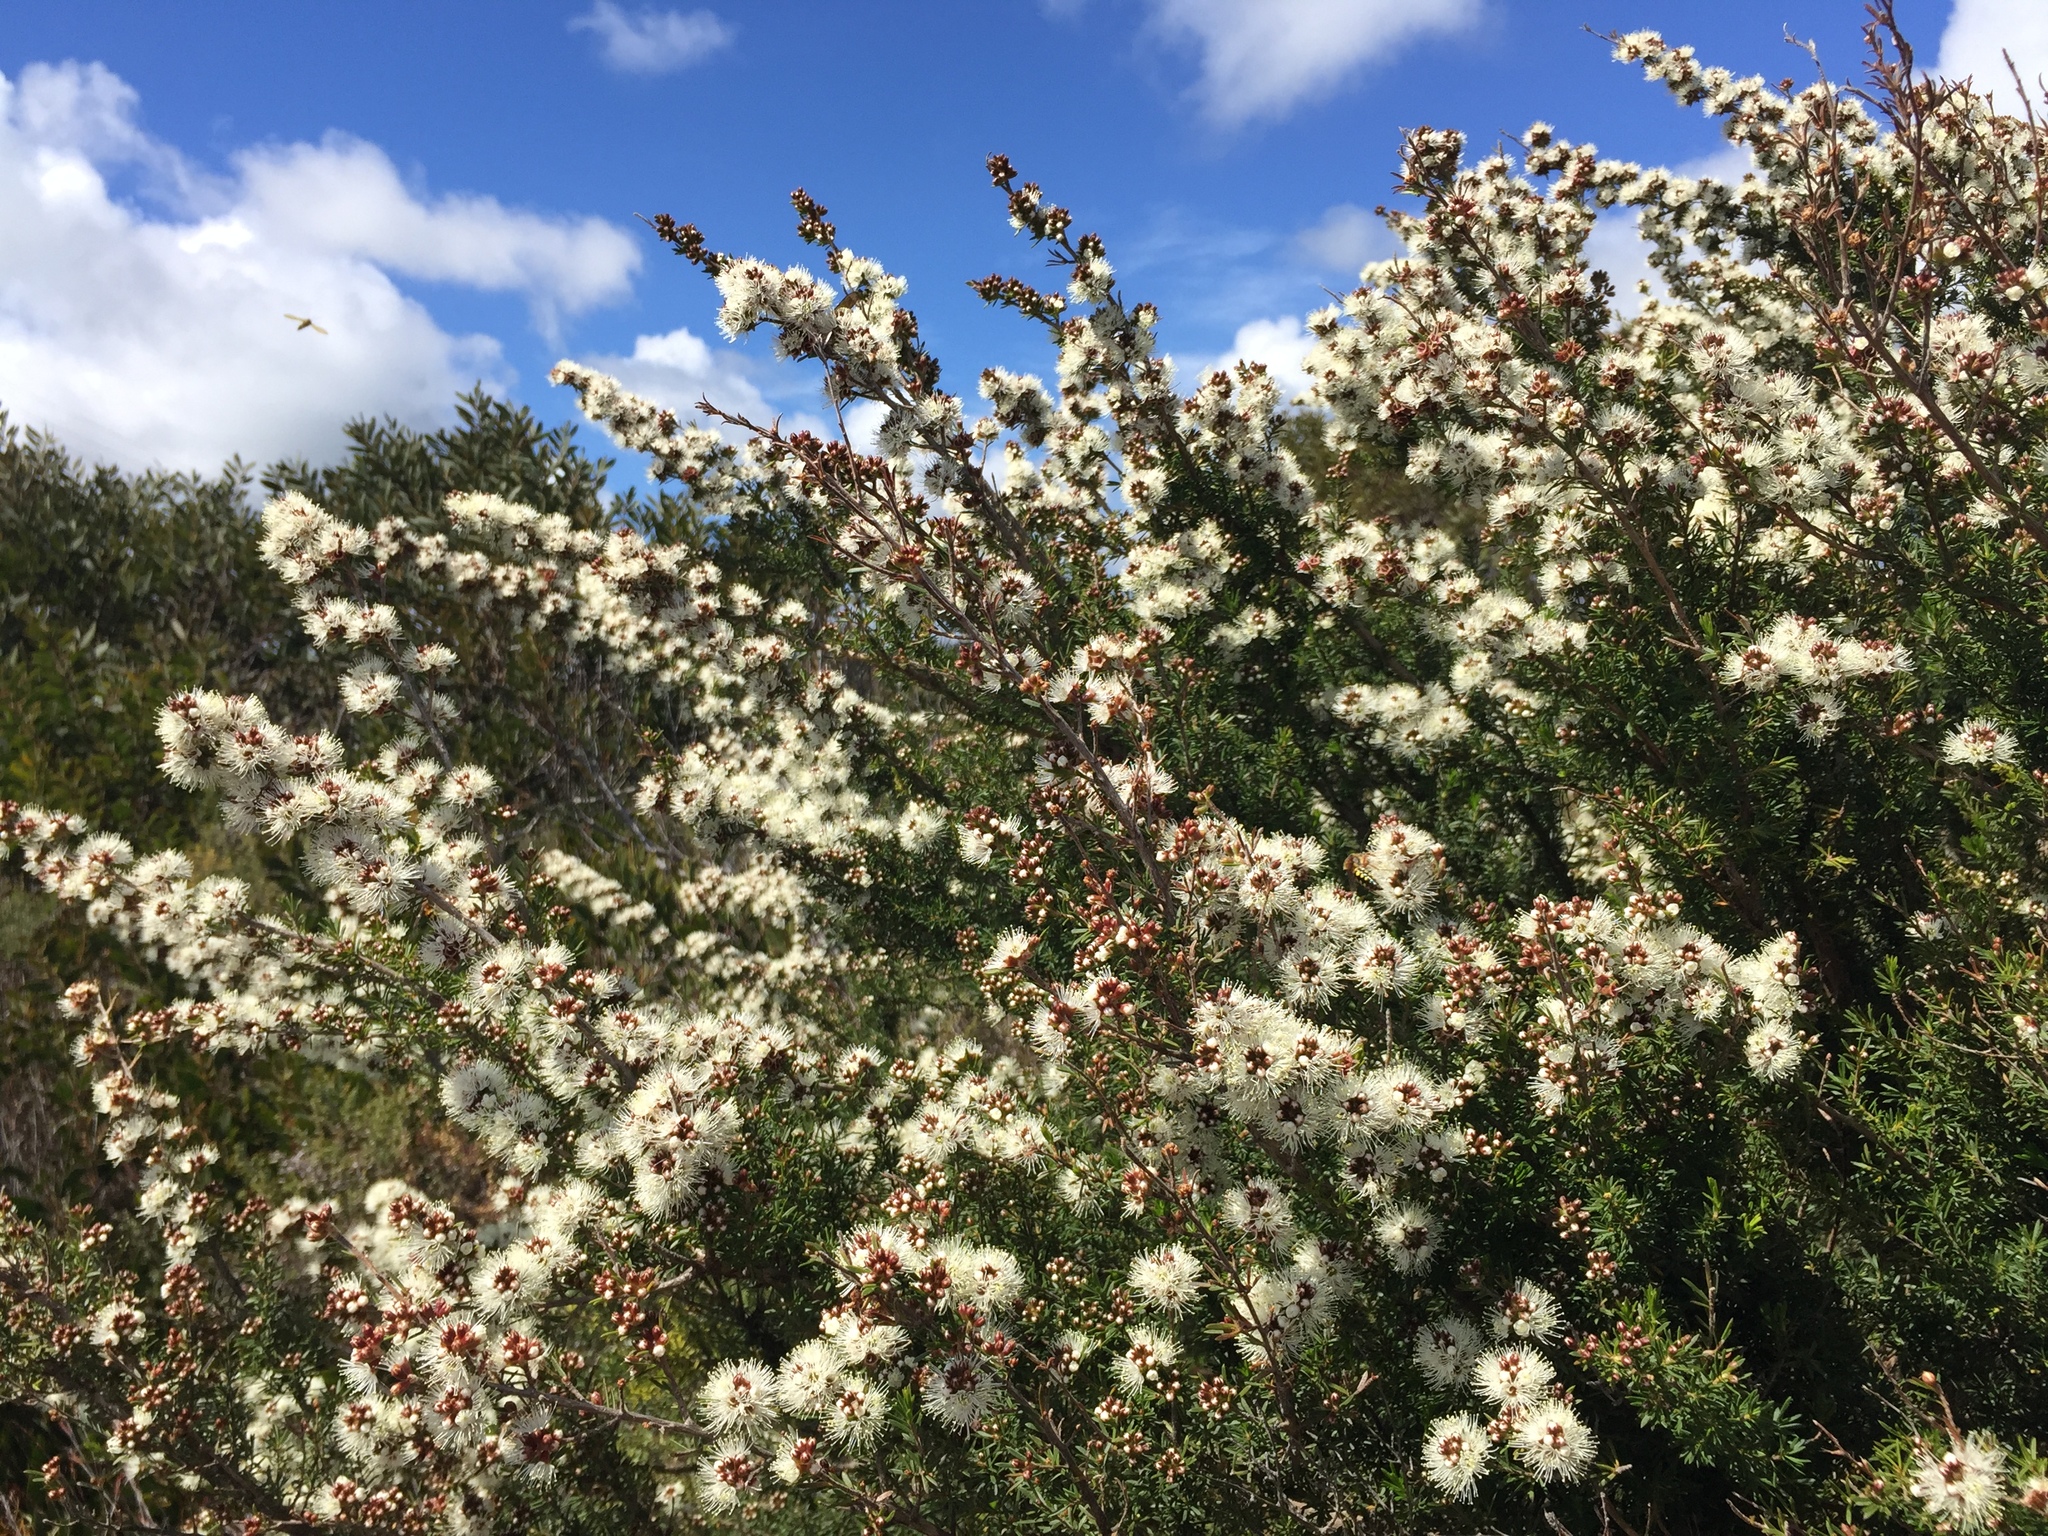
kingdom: Plantae
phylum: Tracheophyta
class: Magnoliopsida
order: Myrtales
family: Myrtaceae
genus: Kunzea
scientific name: Kunzea ambigua
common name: Tickbush
